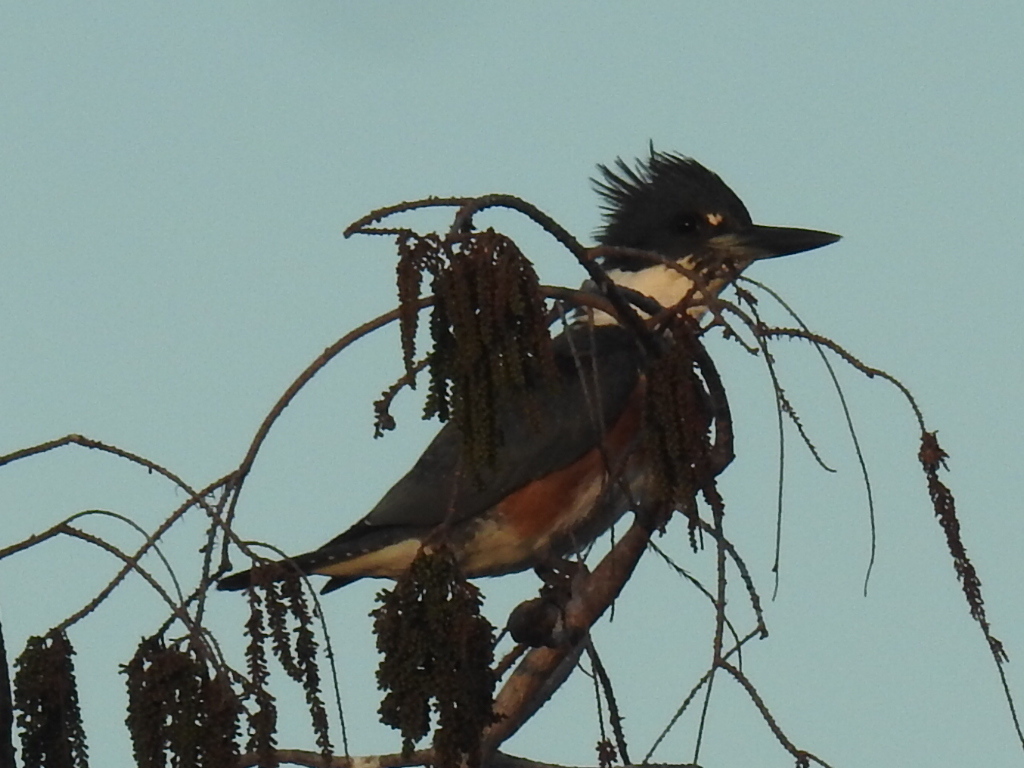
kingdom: Animalia
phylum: Chordata
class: Aves
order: Coraciiformes
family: Alcedinidae
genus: Megaceryle
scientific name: Megaceryle alcyon
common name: Belted kingfisher
